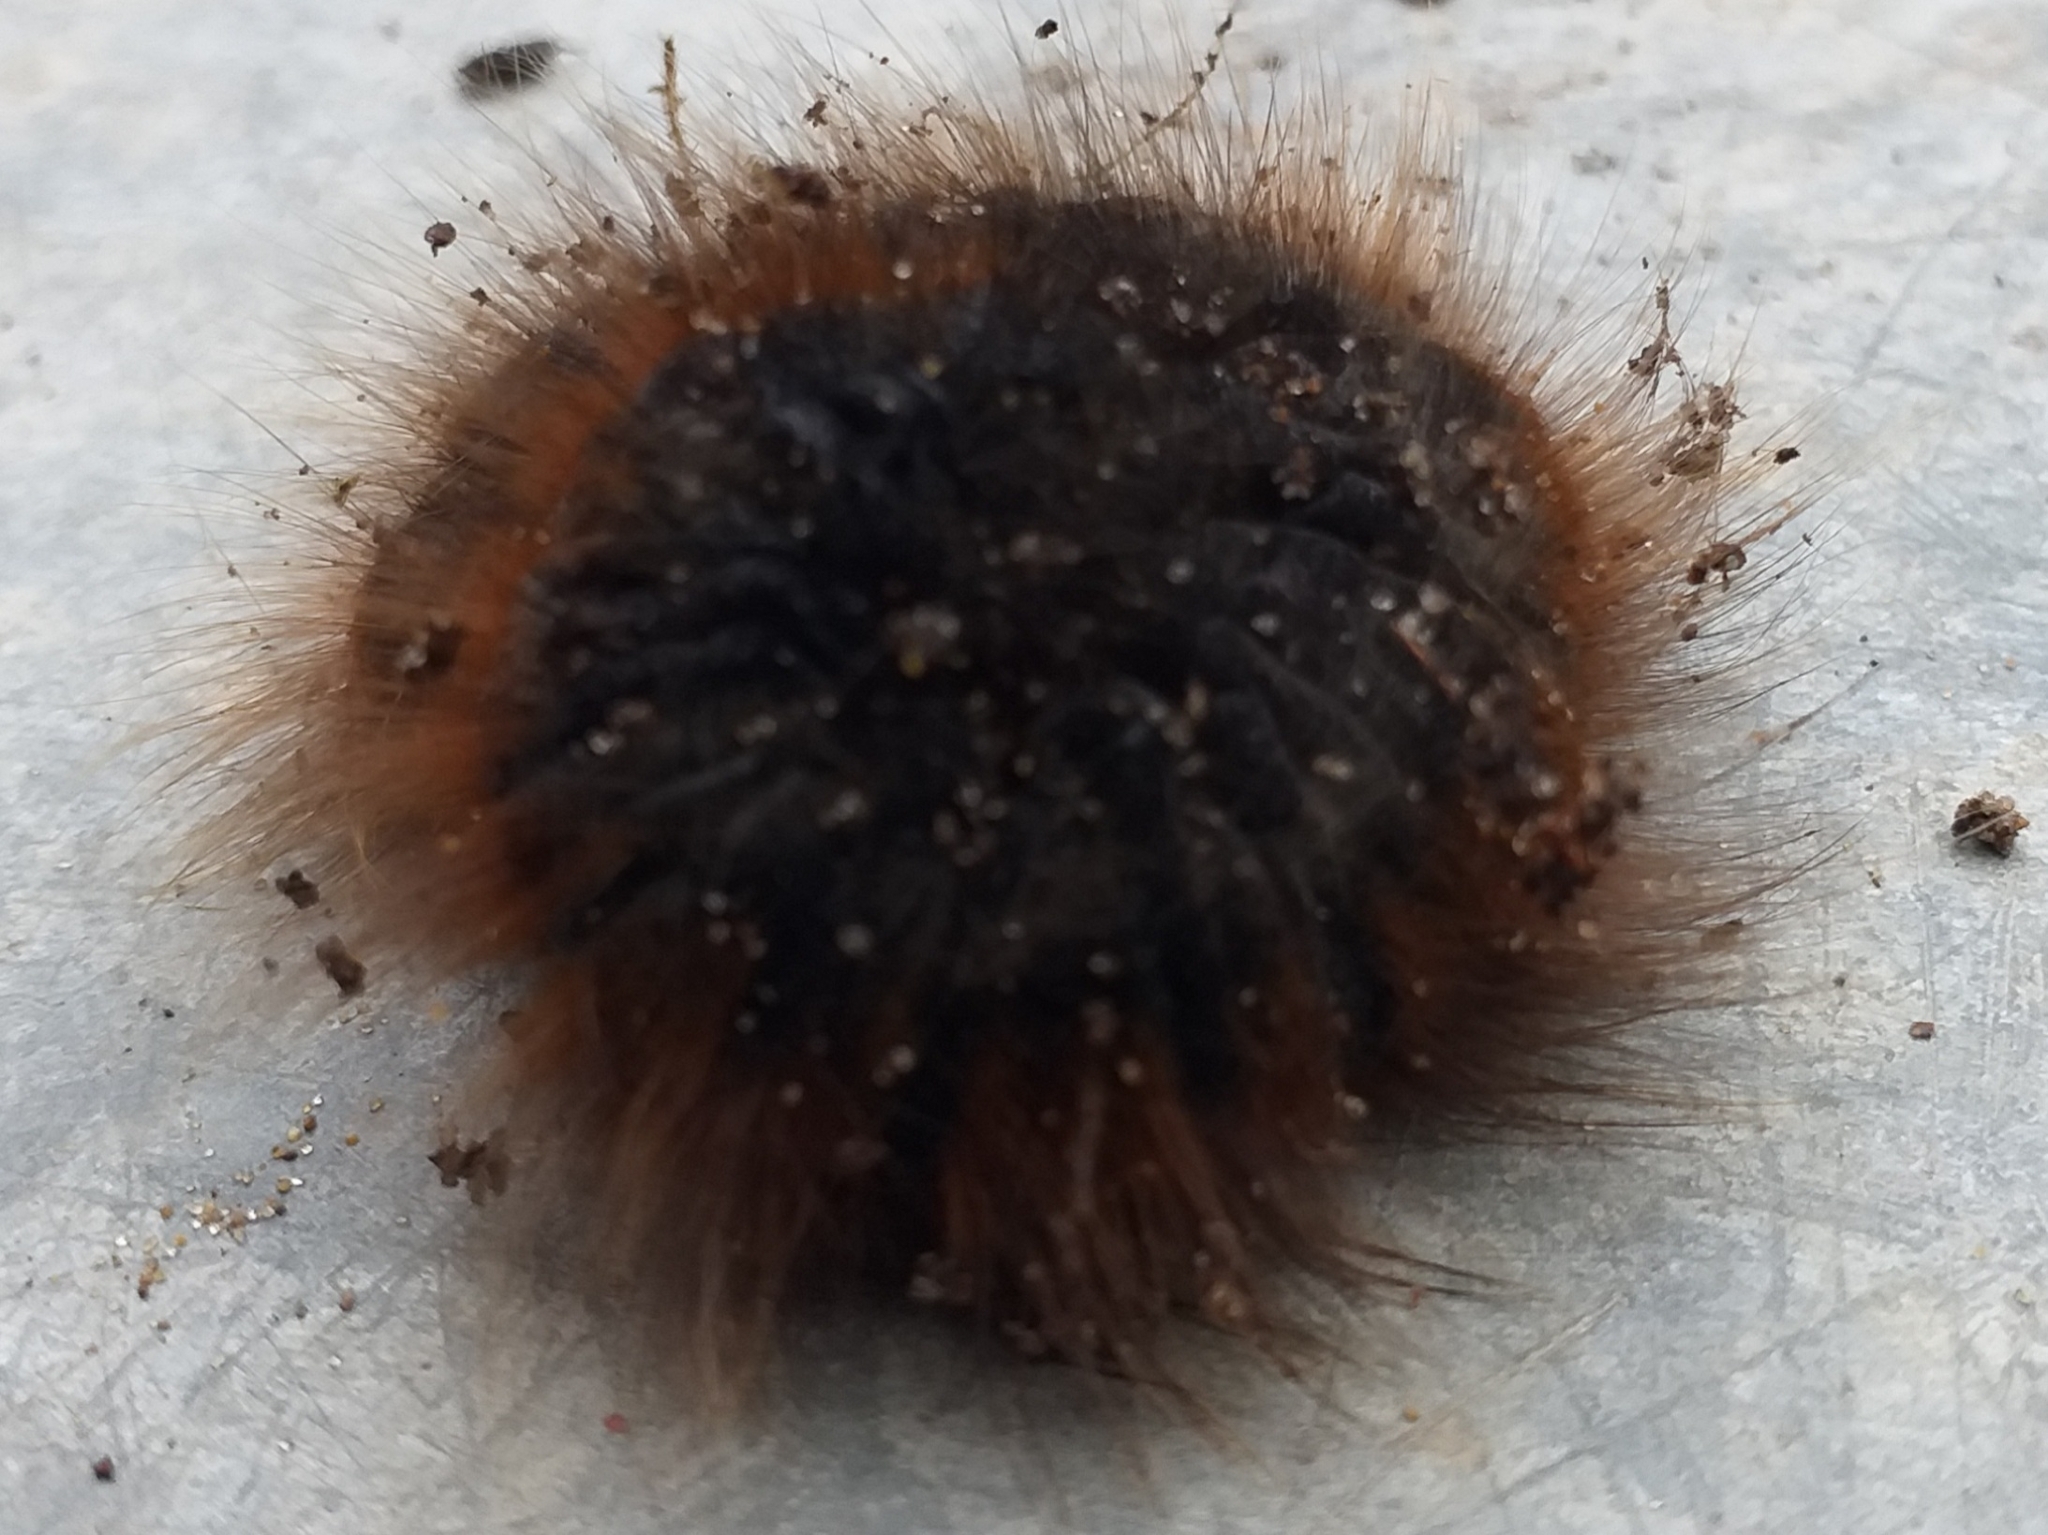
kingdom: Animalia
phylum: Arthropoda
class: Insecta
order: Lepidoptera
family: Lasiocampidae
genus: Macrothylacia
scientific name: Macrothylacia rubi
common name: Fox moth
